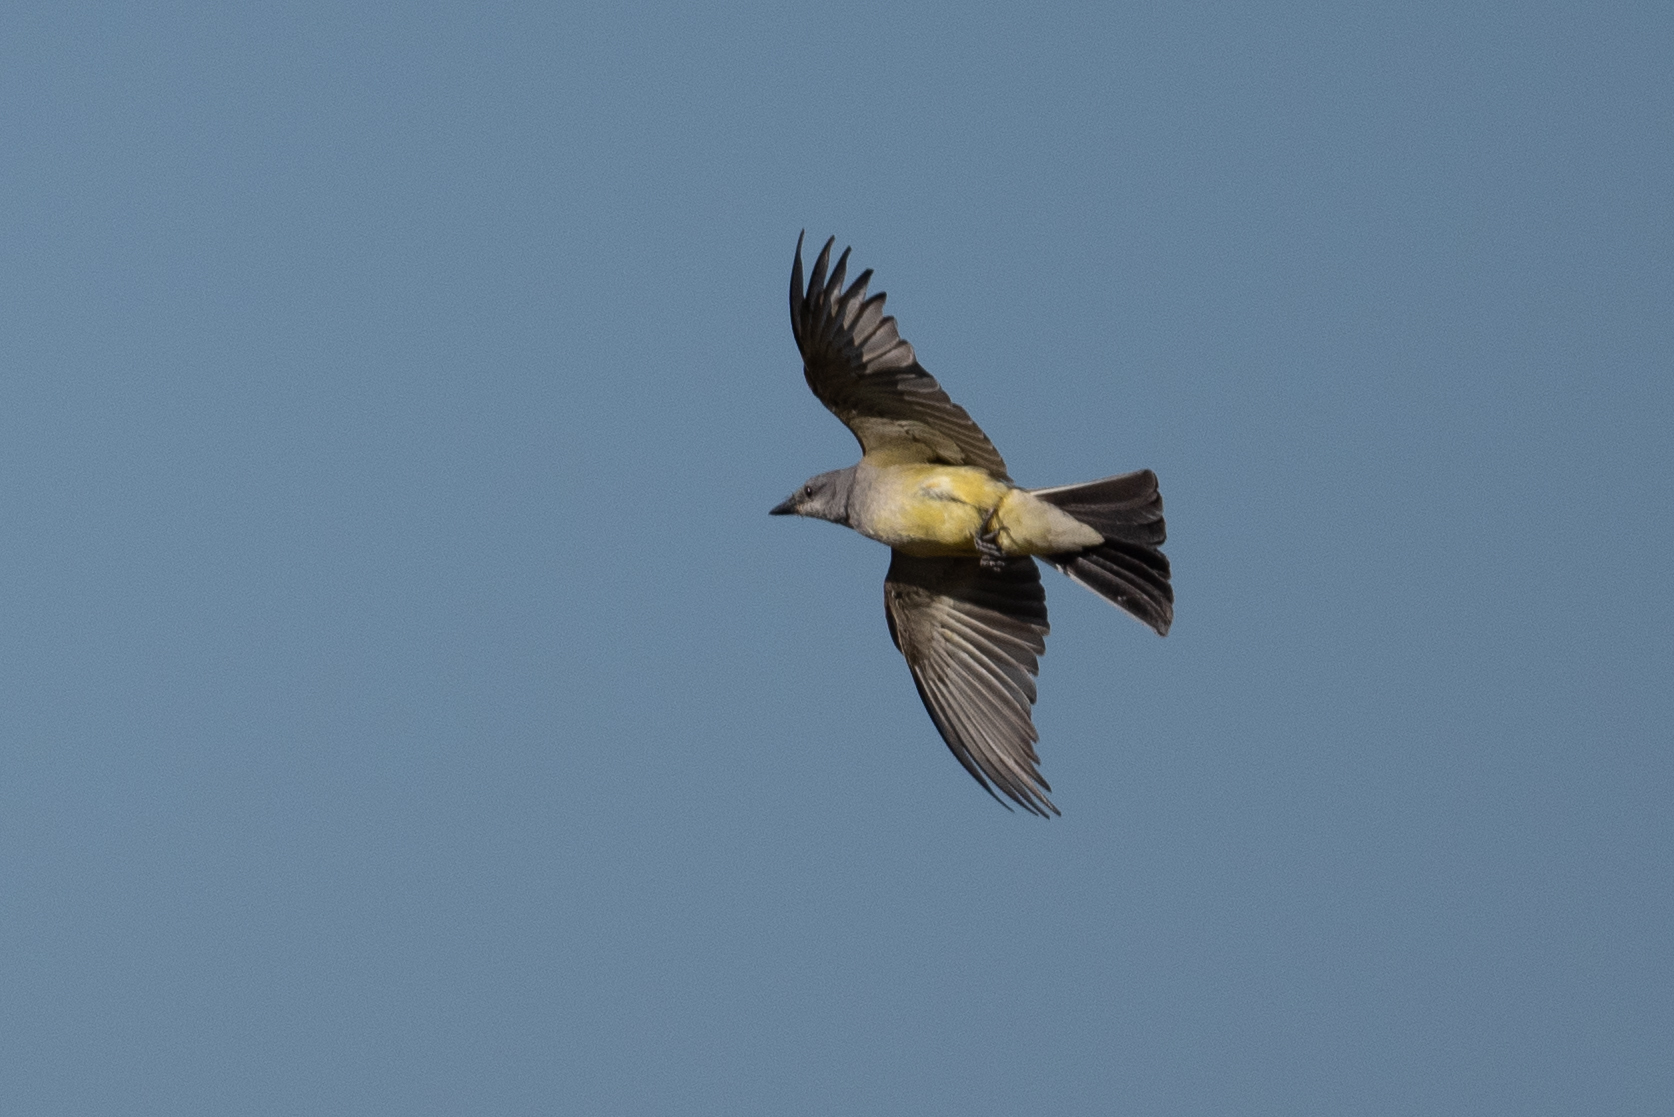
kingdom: Animalia
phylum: Chordata
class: Aves
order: Passeriformes
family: Tyrannidae
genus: Tyrannus
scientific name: Tyrannus verticalis
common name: Western kingbird
